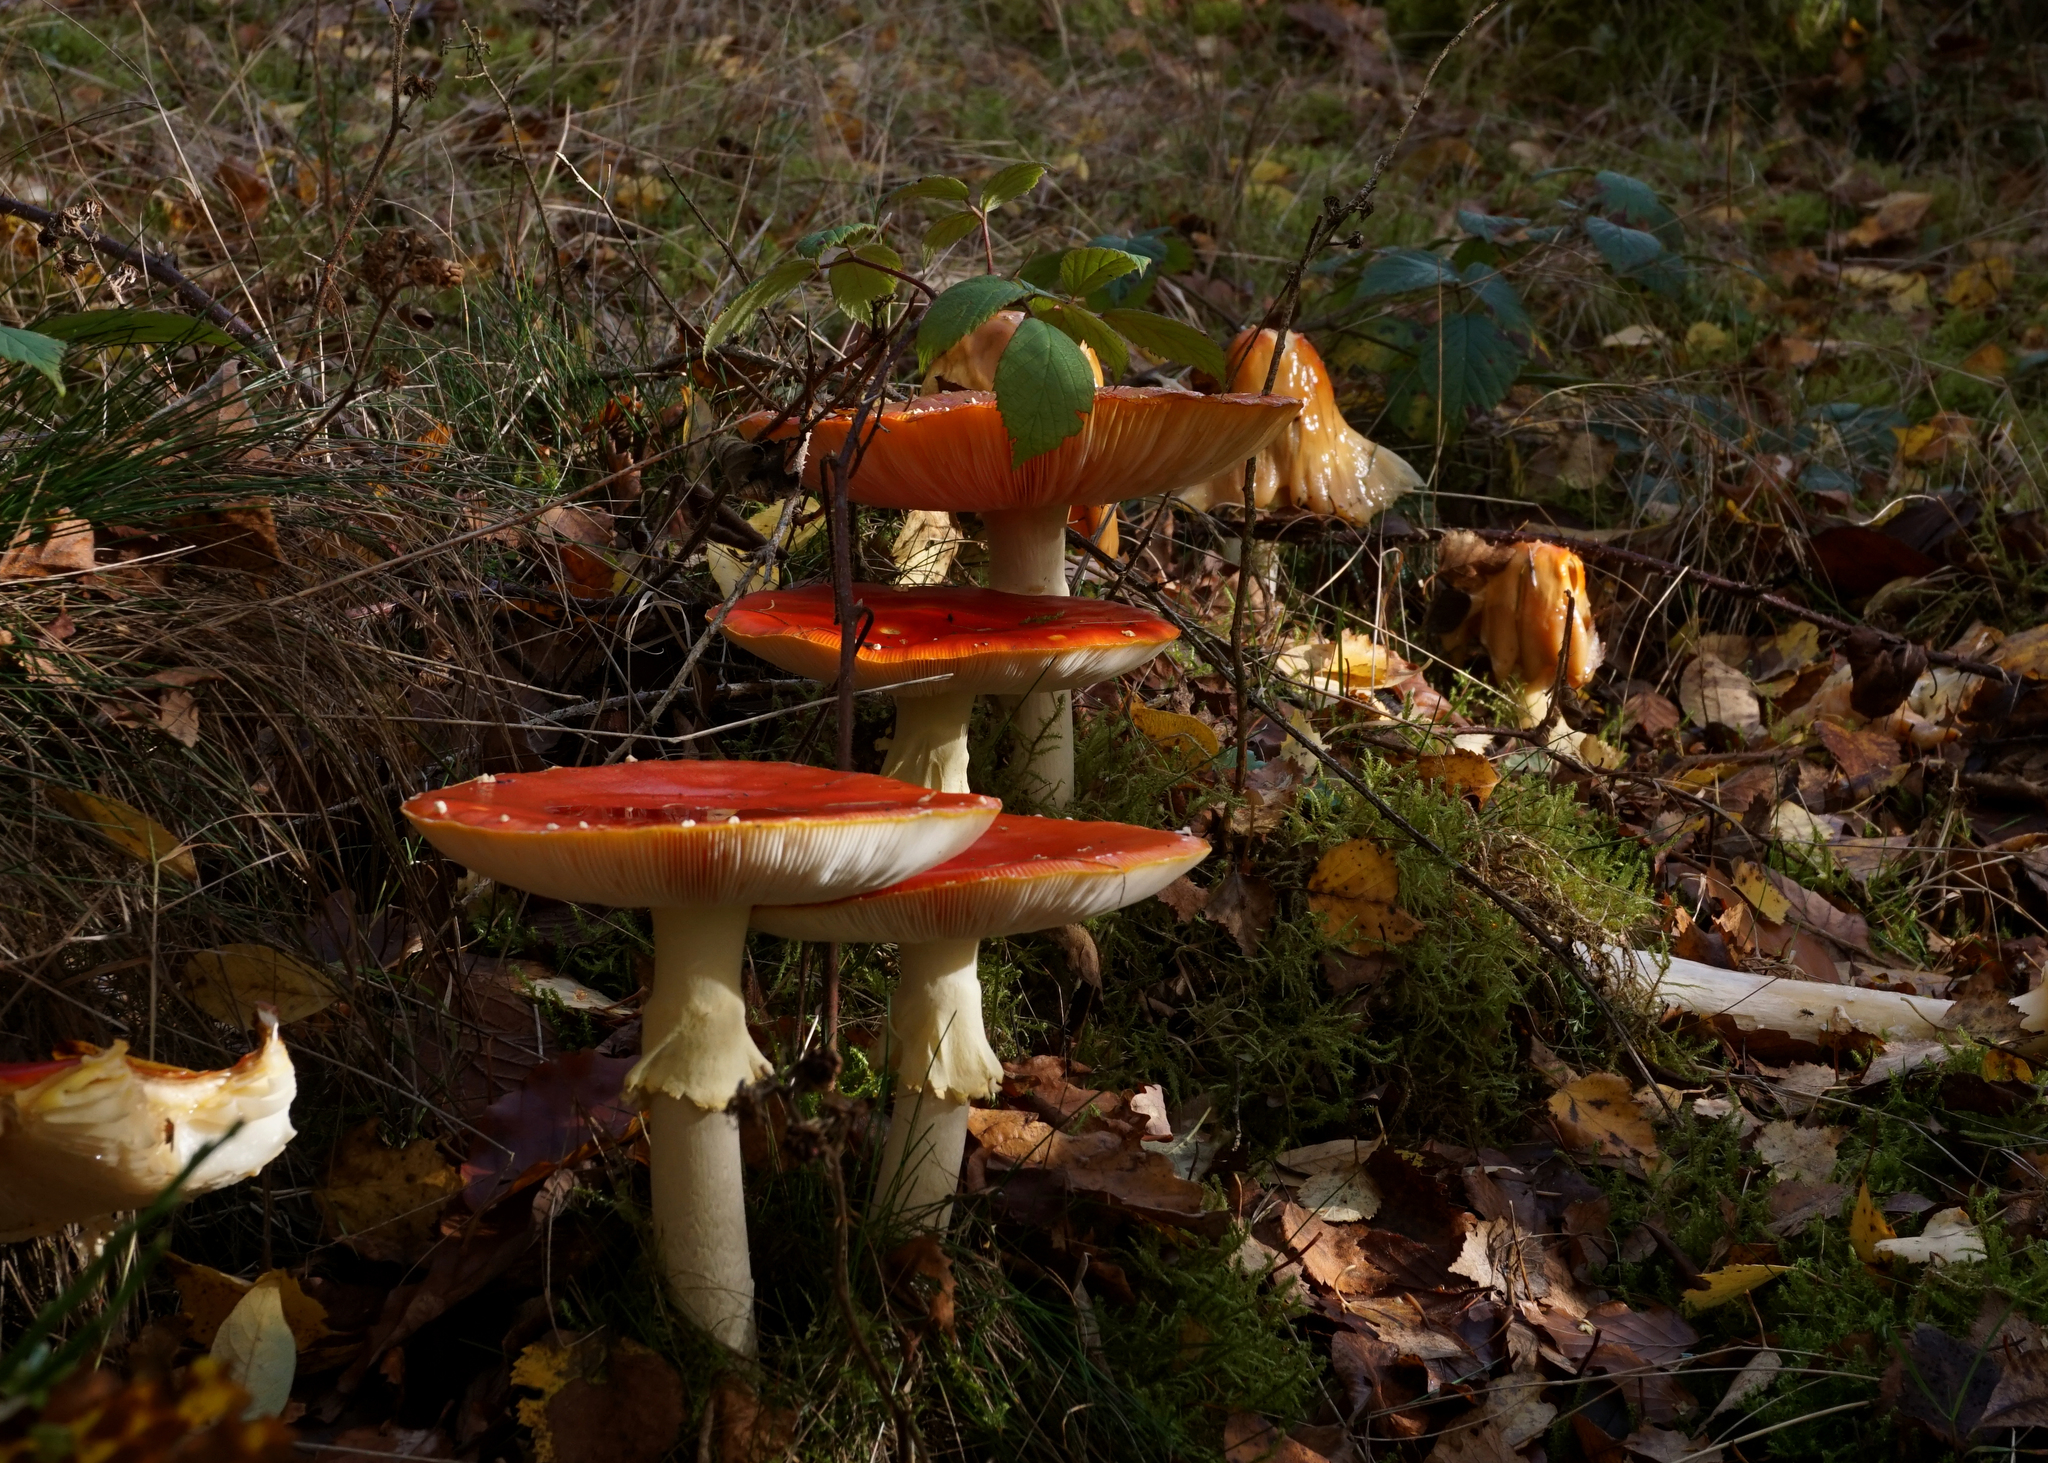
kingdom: Fungi
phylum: Basidiomycota
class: Agaricomycetes
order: Agaricales
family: Amanitaceae
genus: Amanita
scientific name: Amanita muscaria
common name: Fly agaric
